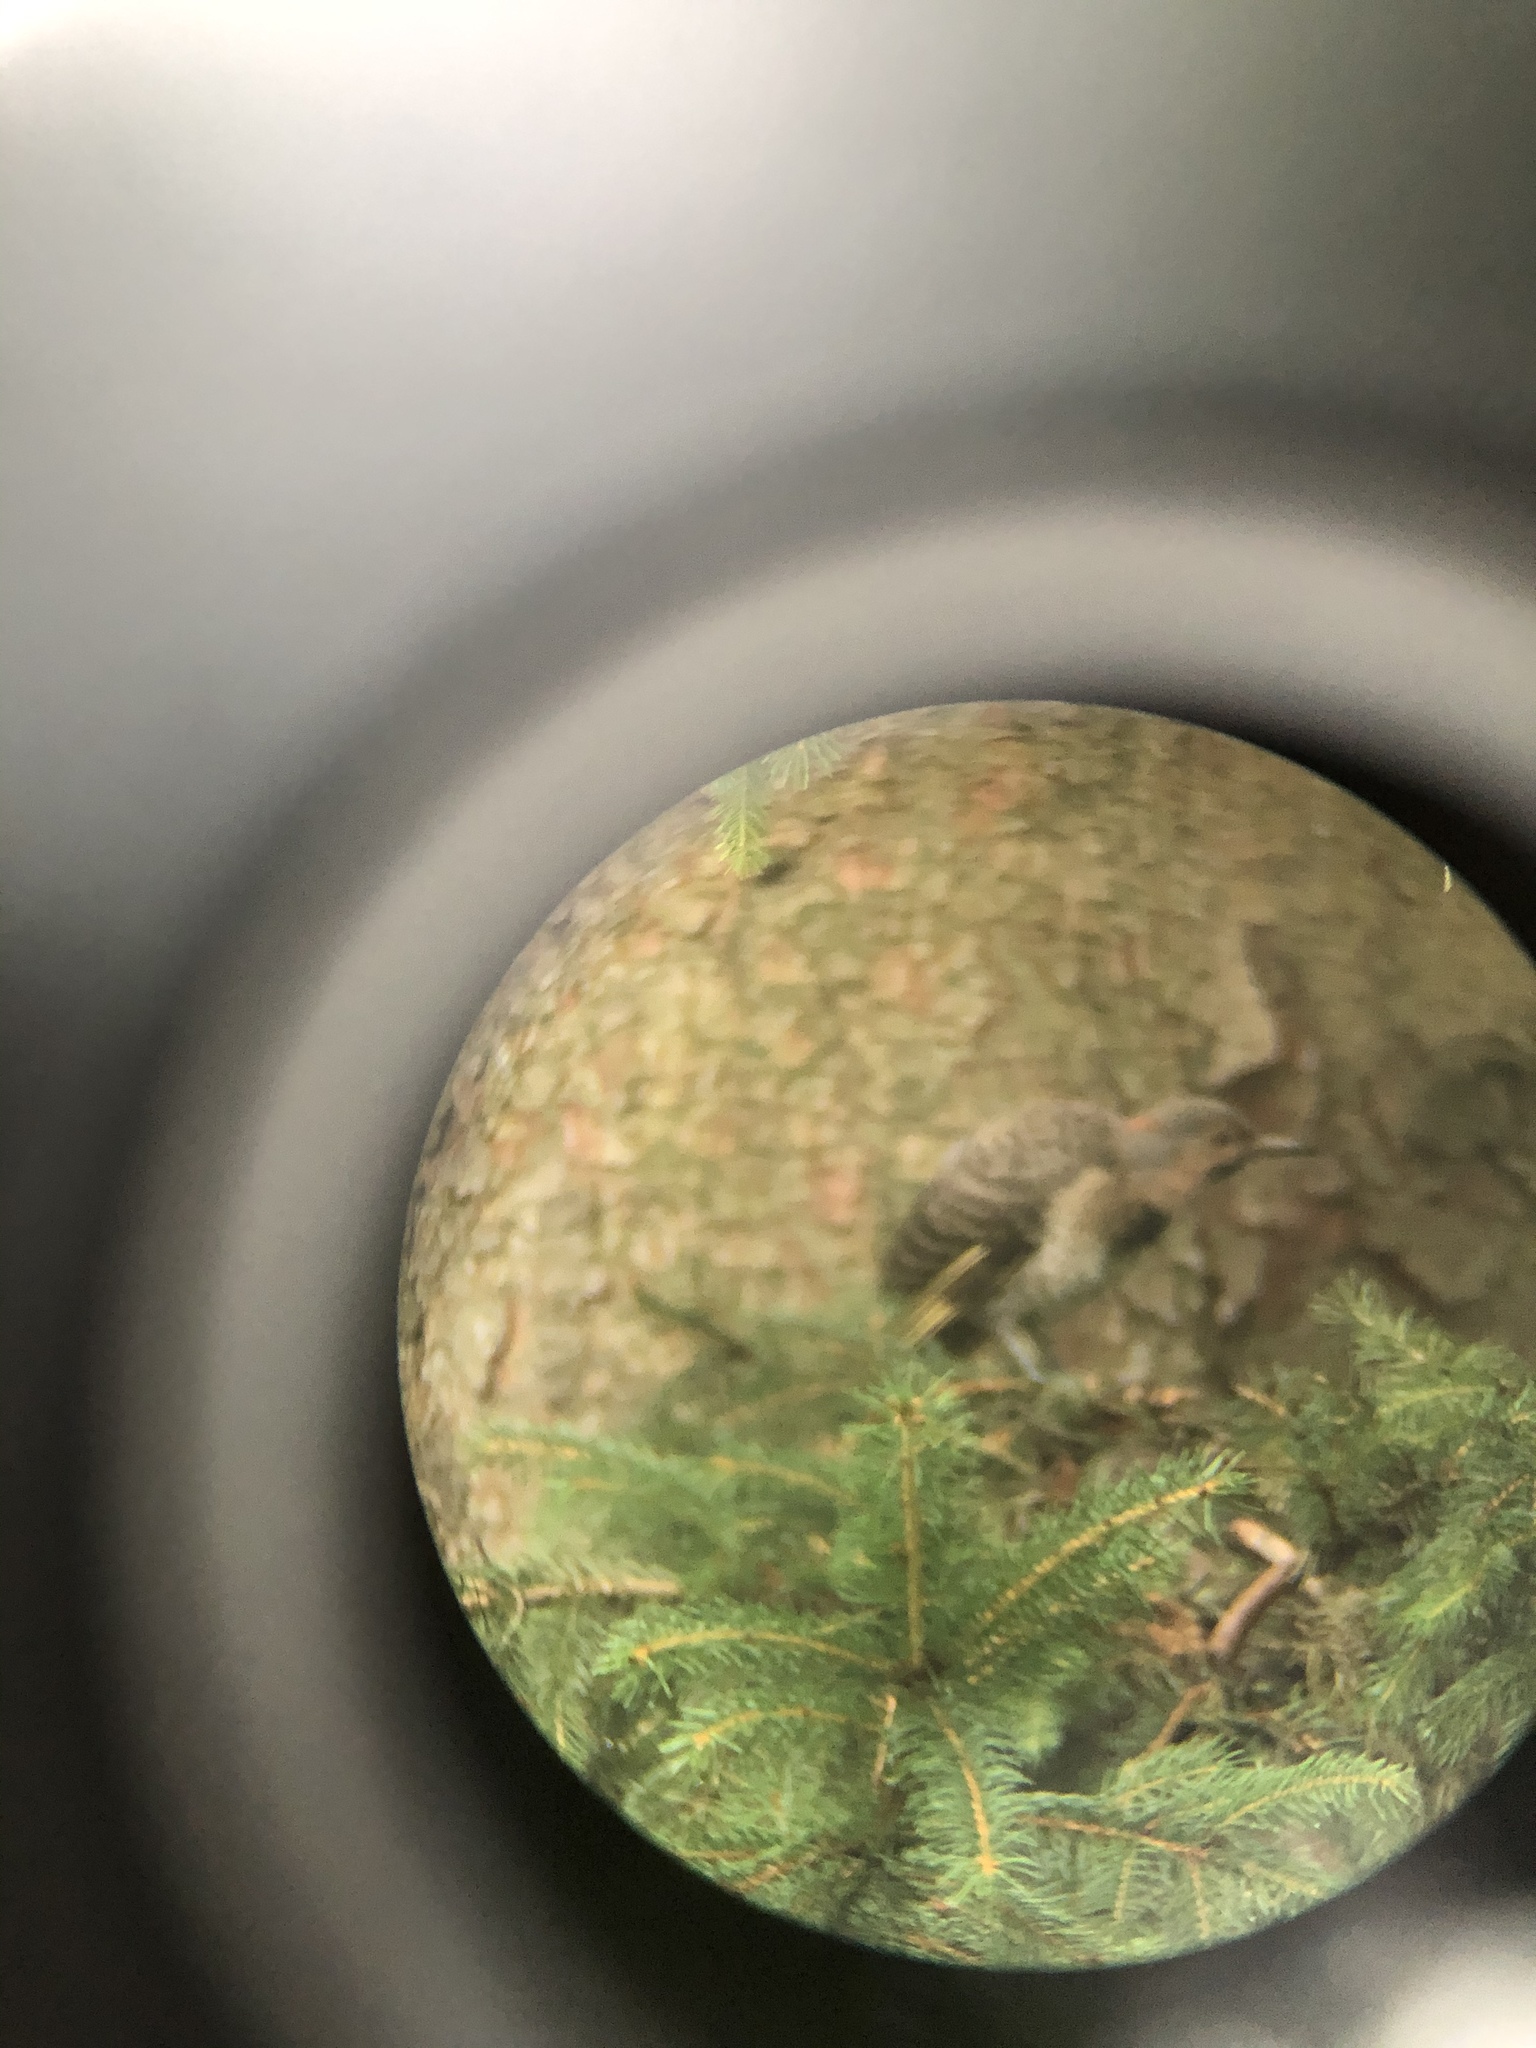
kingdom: Animalia
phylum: Chordata
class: Aves
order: Piciformes
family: Picidae
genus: Colaptes
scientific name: Colaptes auratus
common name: Northern flicker
